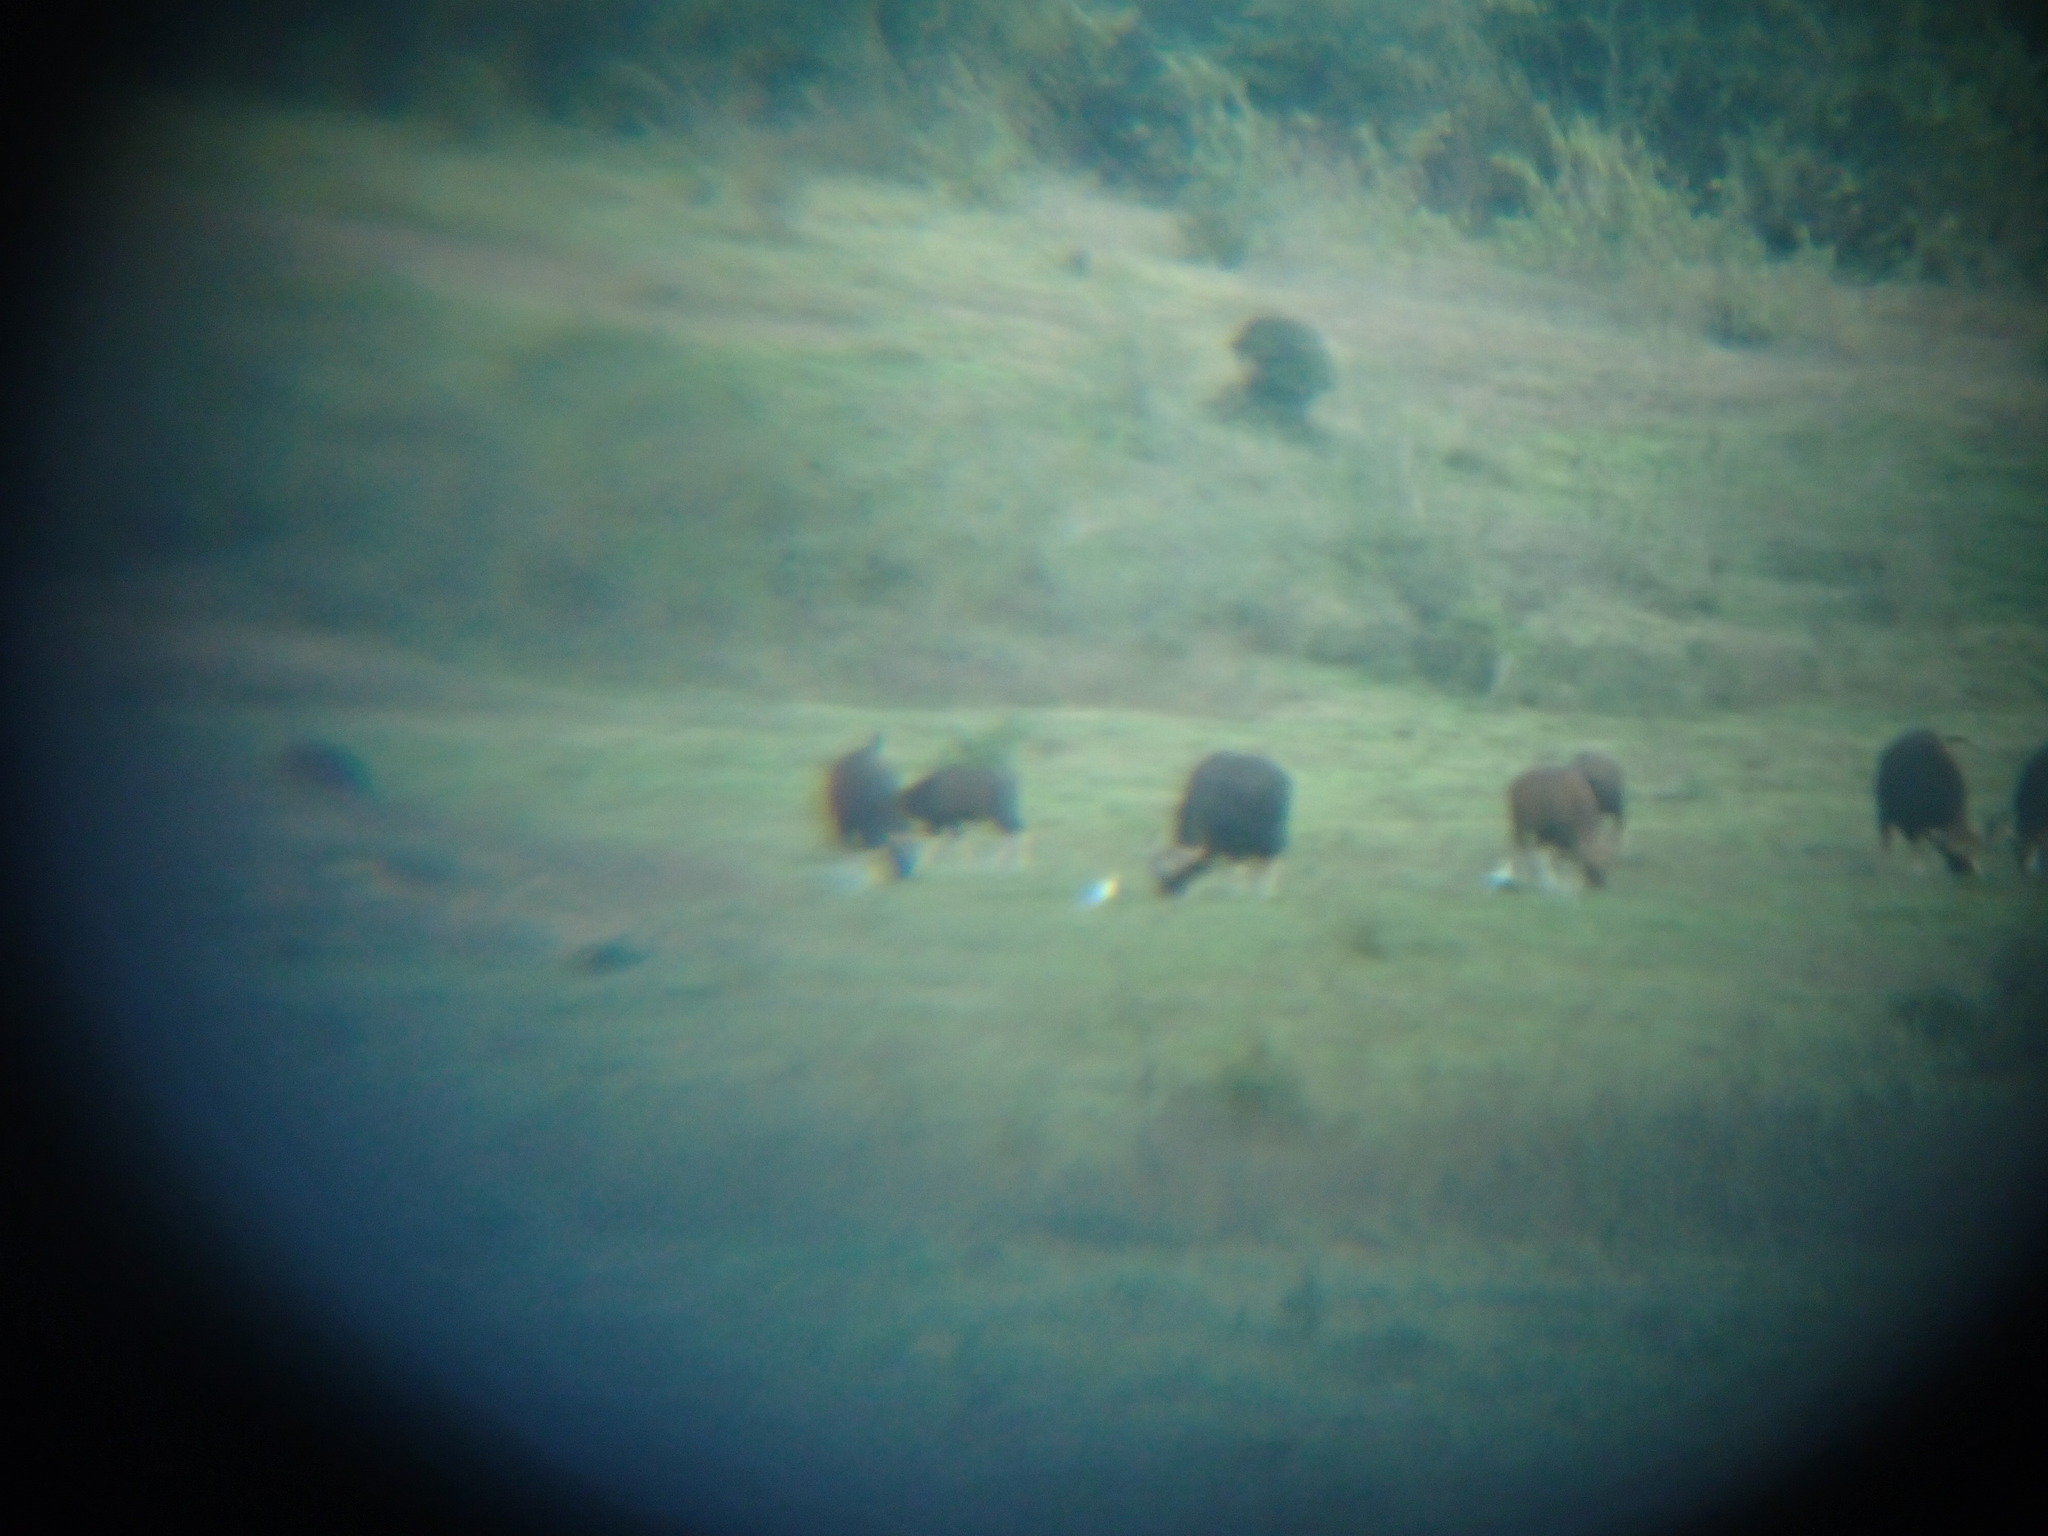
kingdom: Animalia
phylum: Chordata
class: Mammalia
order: Artiodactyla
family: Bovidae
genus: Bos
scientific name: Bos frontalis
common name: Gaur
